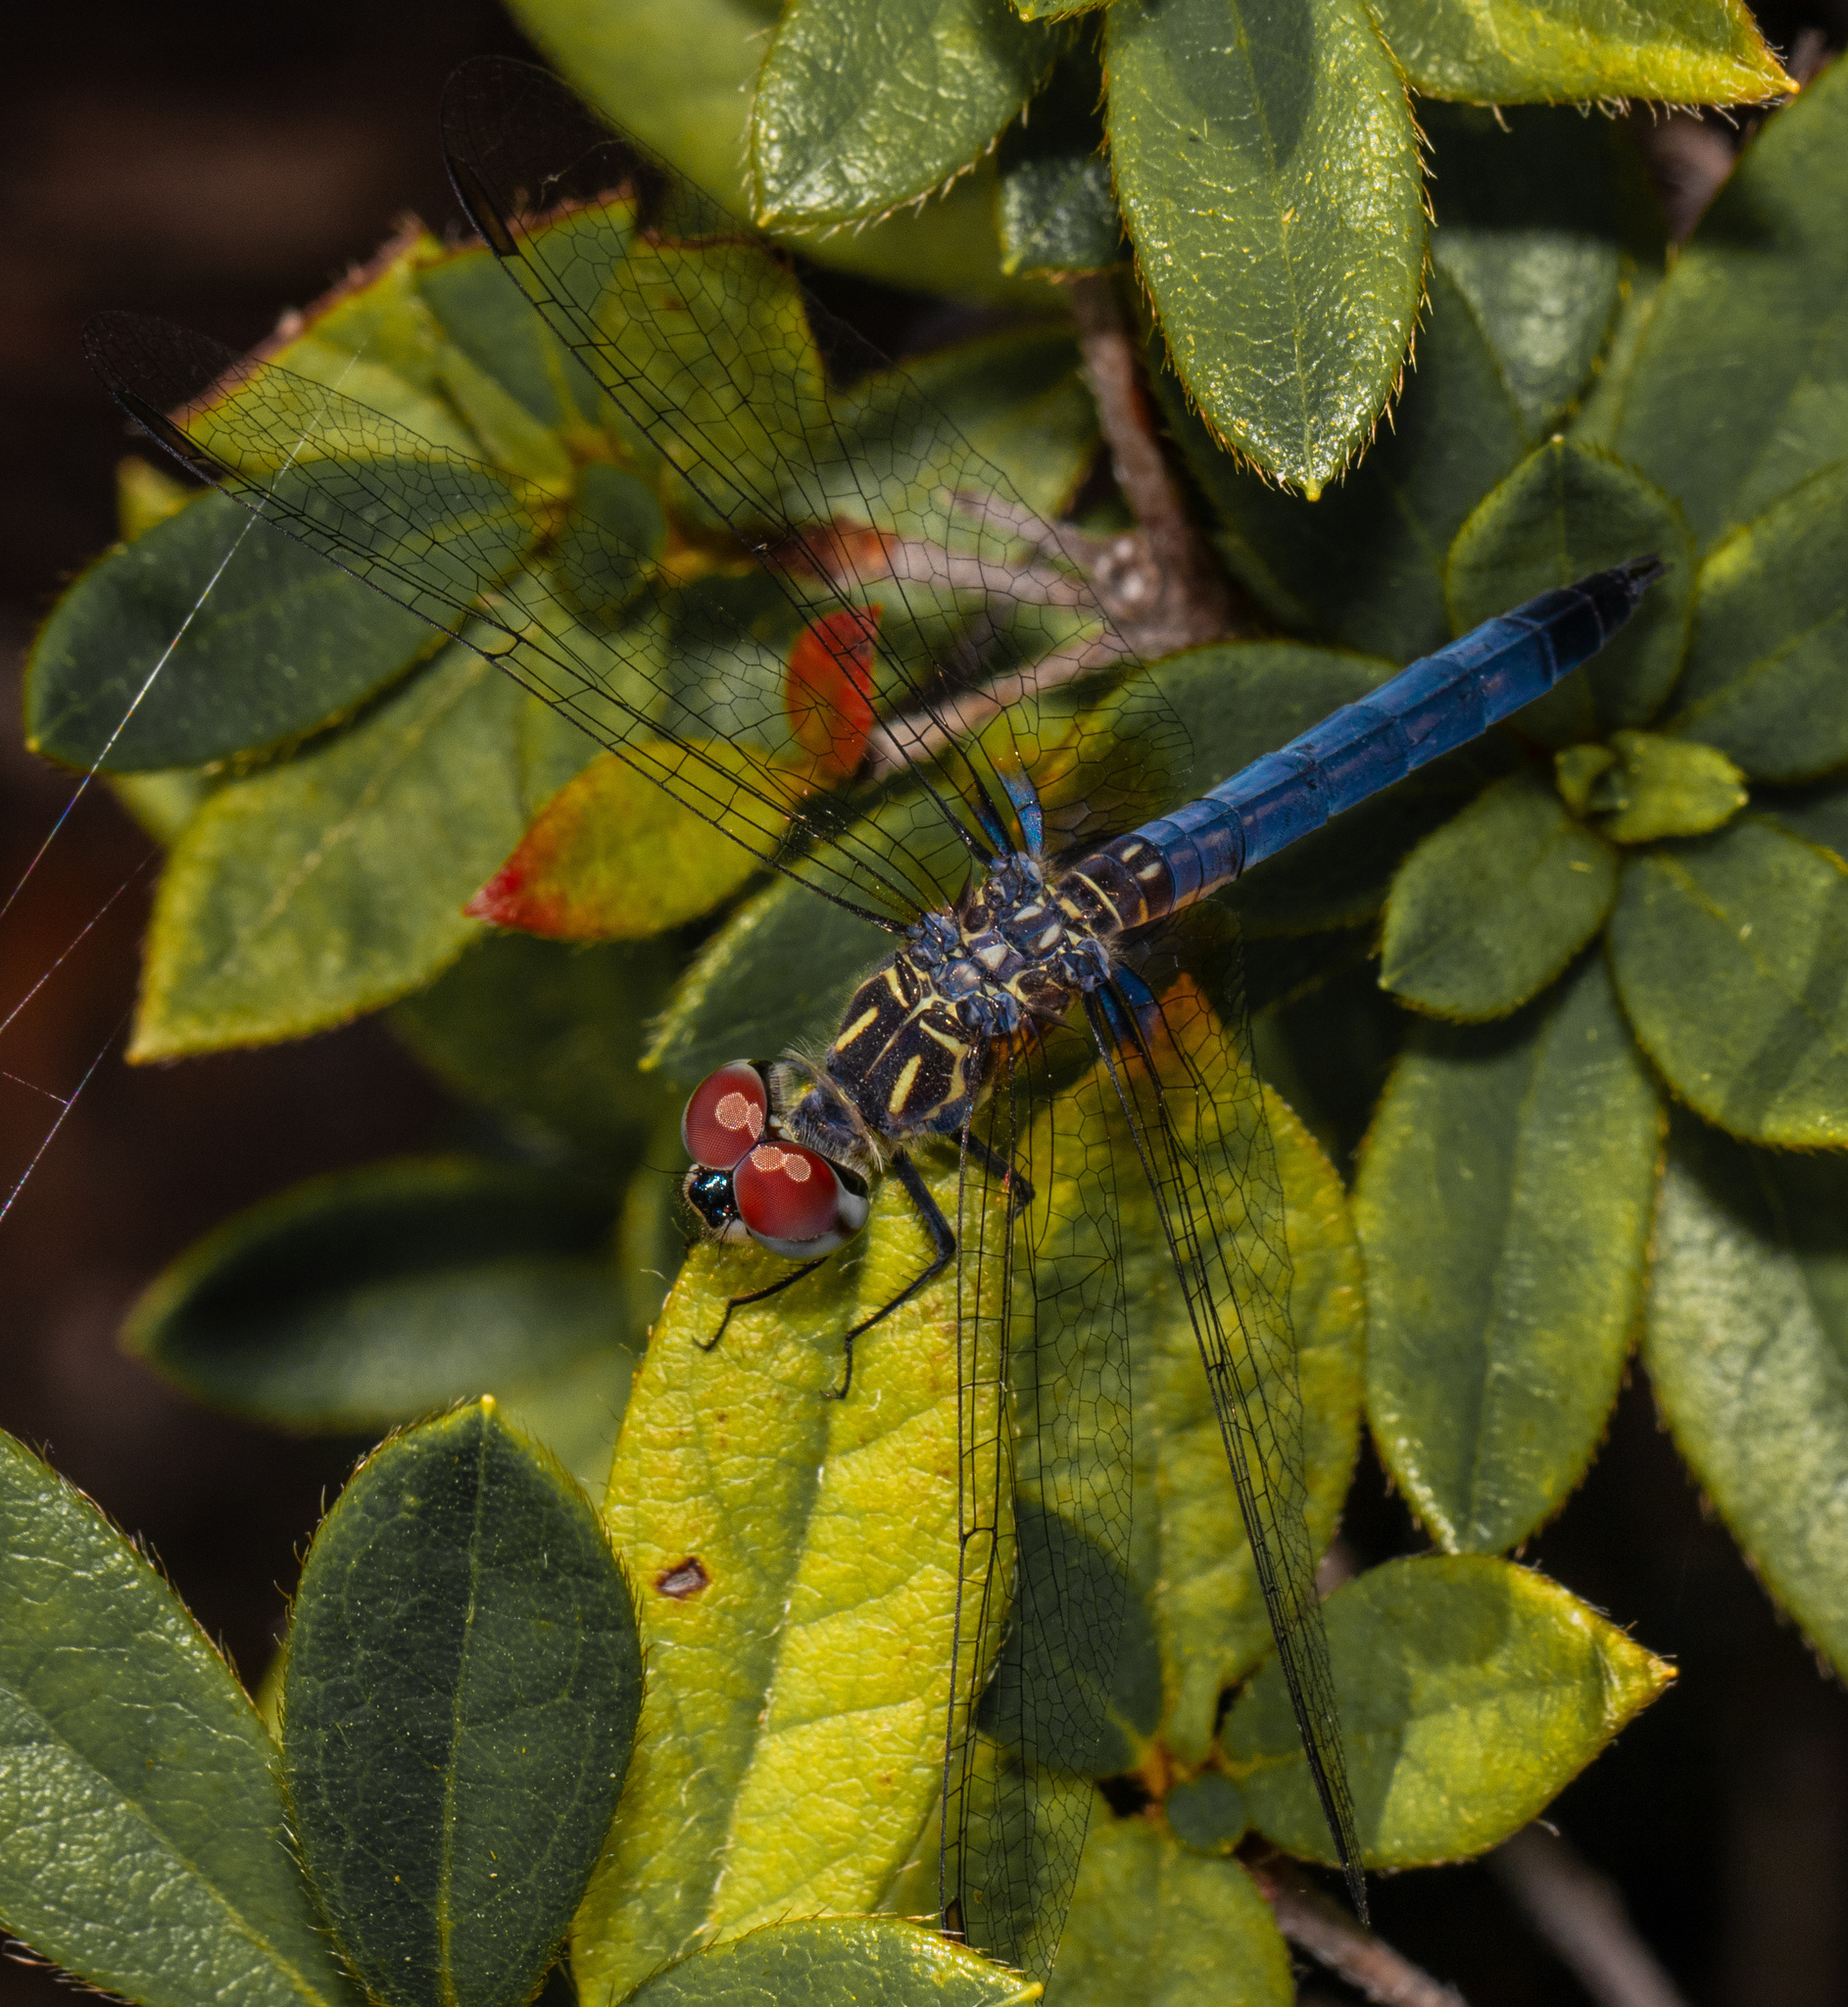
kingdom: Animalia
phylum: Arthropoda
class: Insecta
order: Odonata
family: Libellulidae
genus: Pachydiplax
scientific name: Pachydiplax longipennis
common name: Blue dasher
